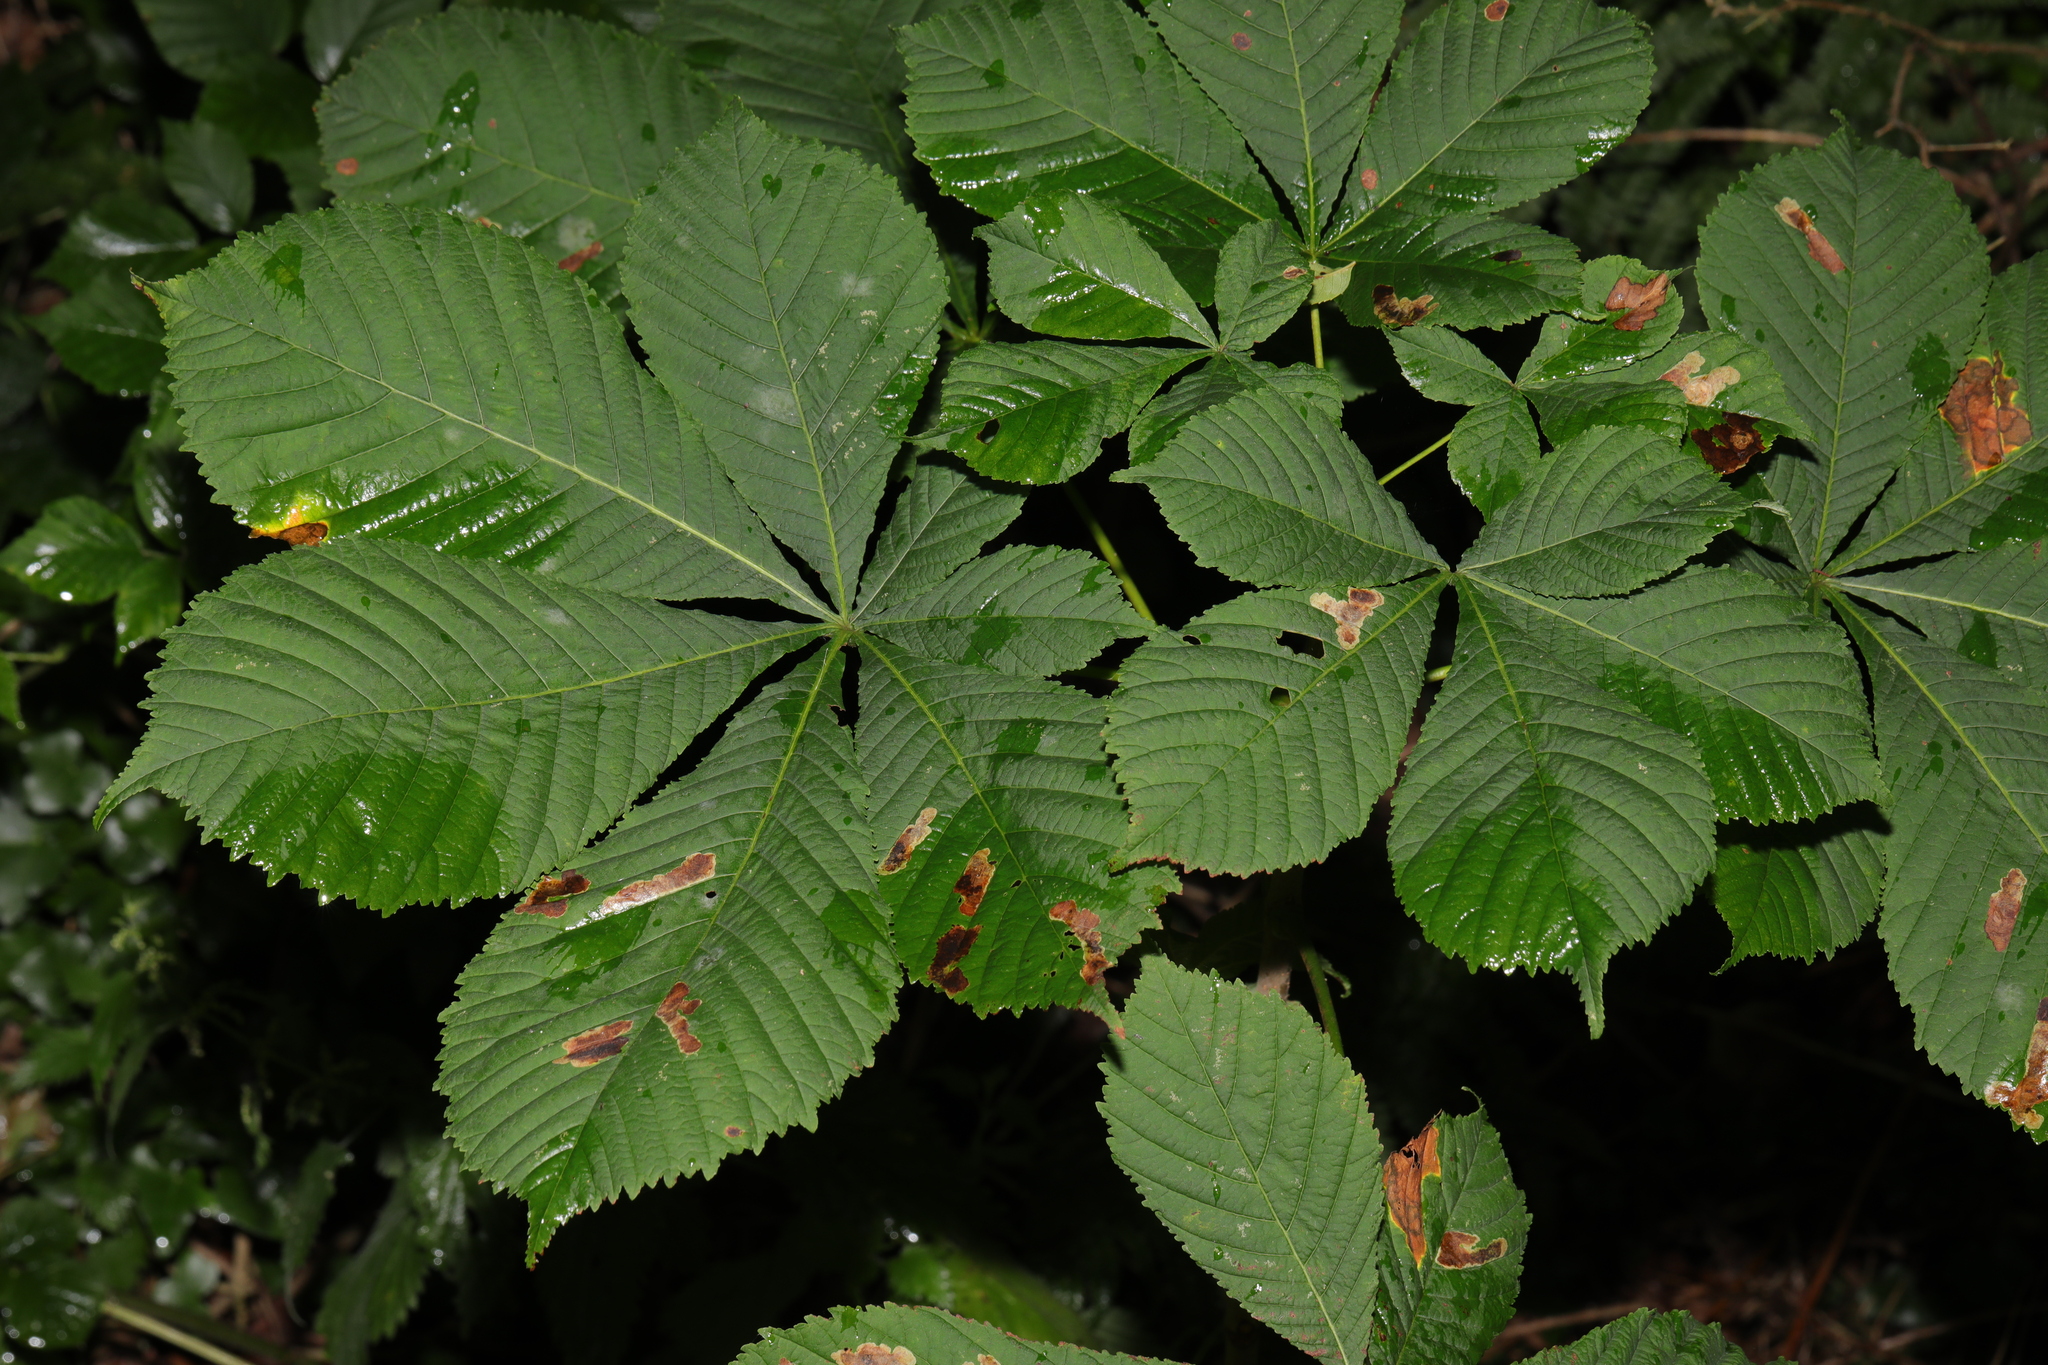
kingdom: Plantae
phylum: Tracheophyta
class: Magnoliopsida
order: Sapindales
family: Sapindaceae
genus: Aesculus
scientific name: Aesculus hippocastanum
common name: Horse-chestnut
